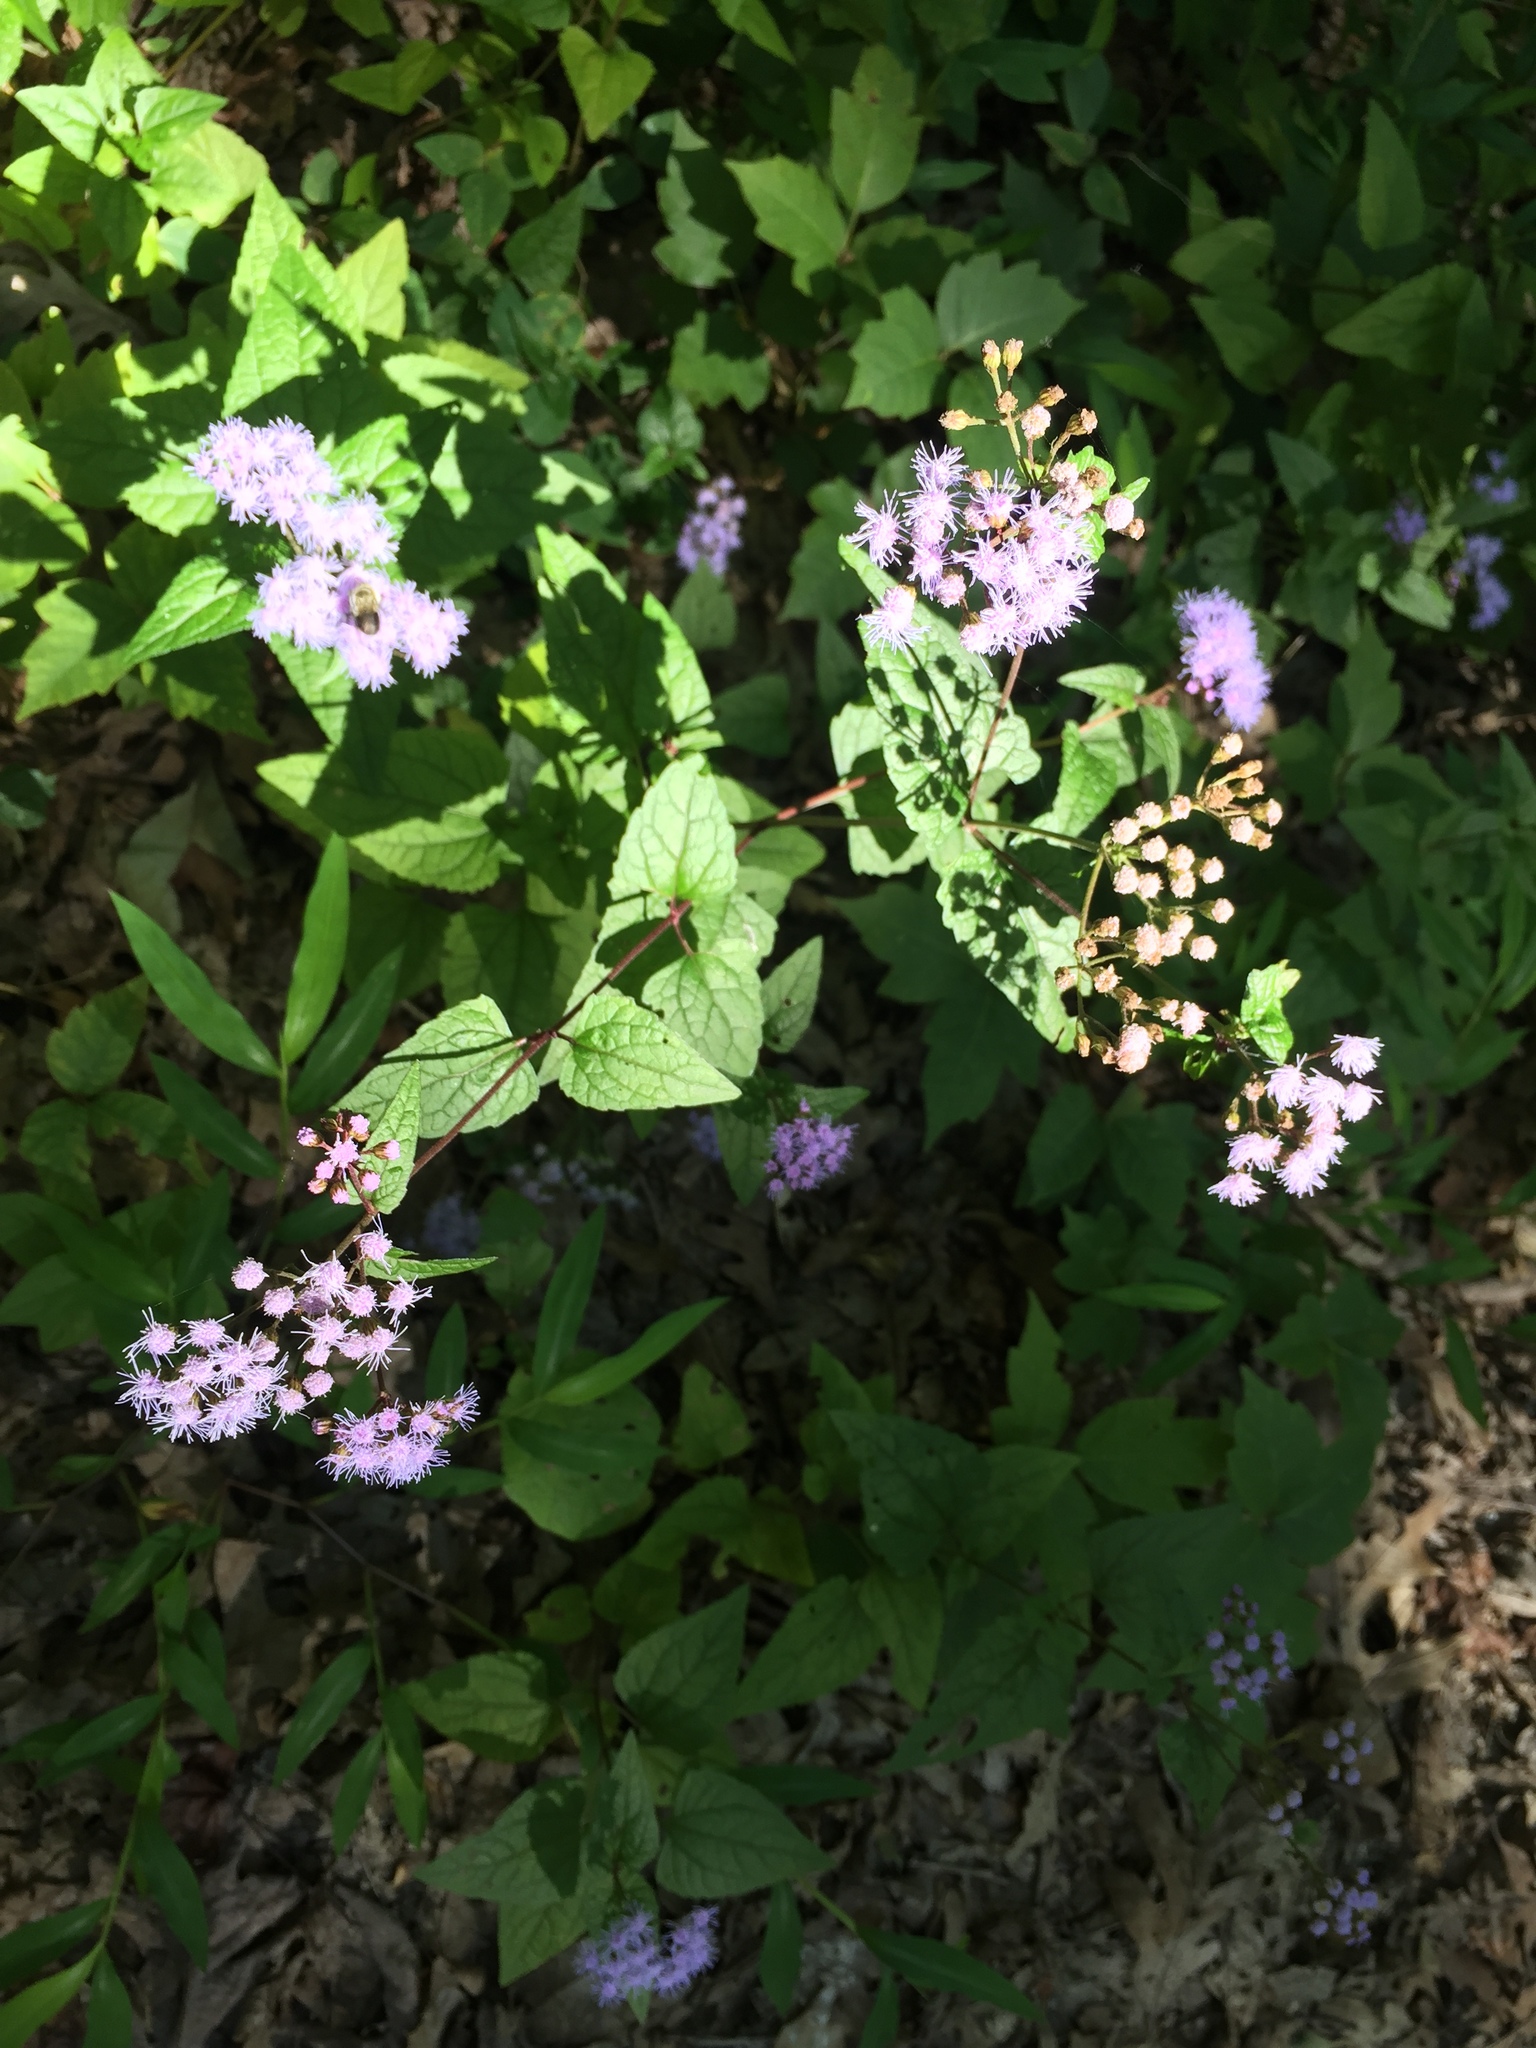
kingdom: Plantae
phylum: Tracheophyta
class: Magnoliopsida
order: Asterales
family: Asteraceae
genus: Conoclinium
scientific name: Conoclinium coelestinum
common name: Blue mistflower
